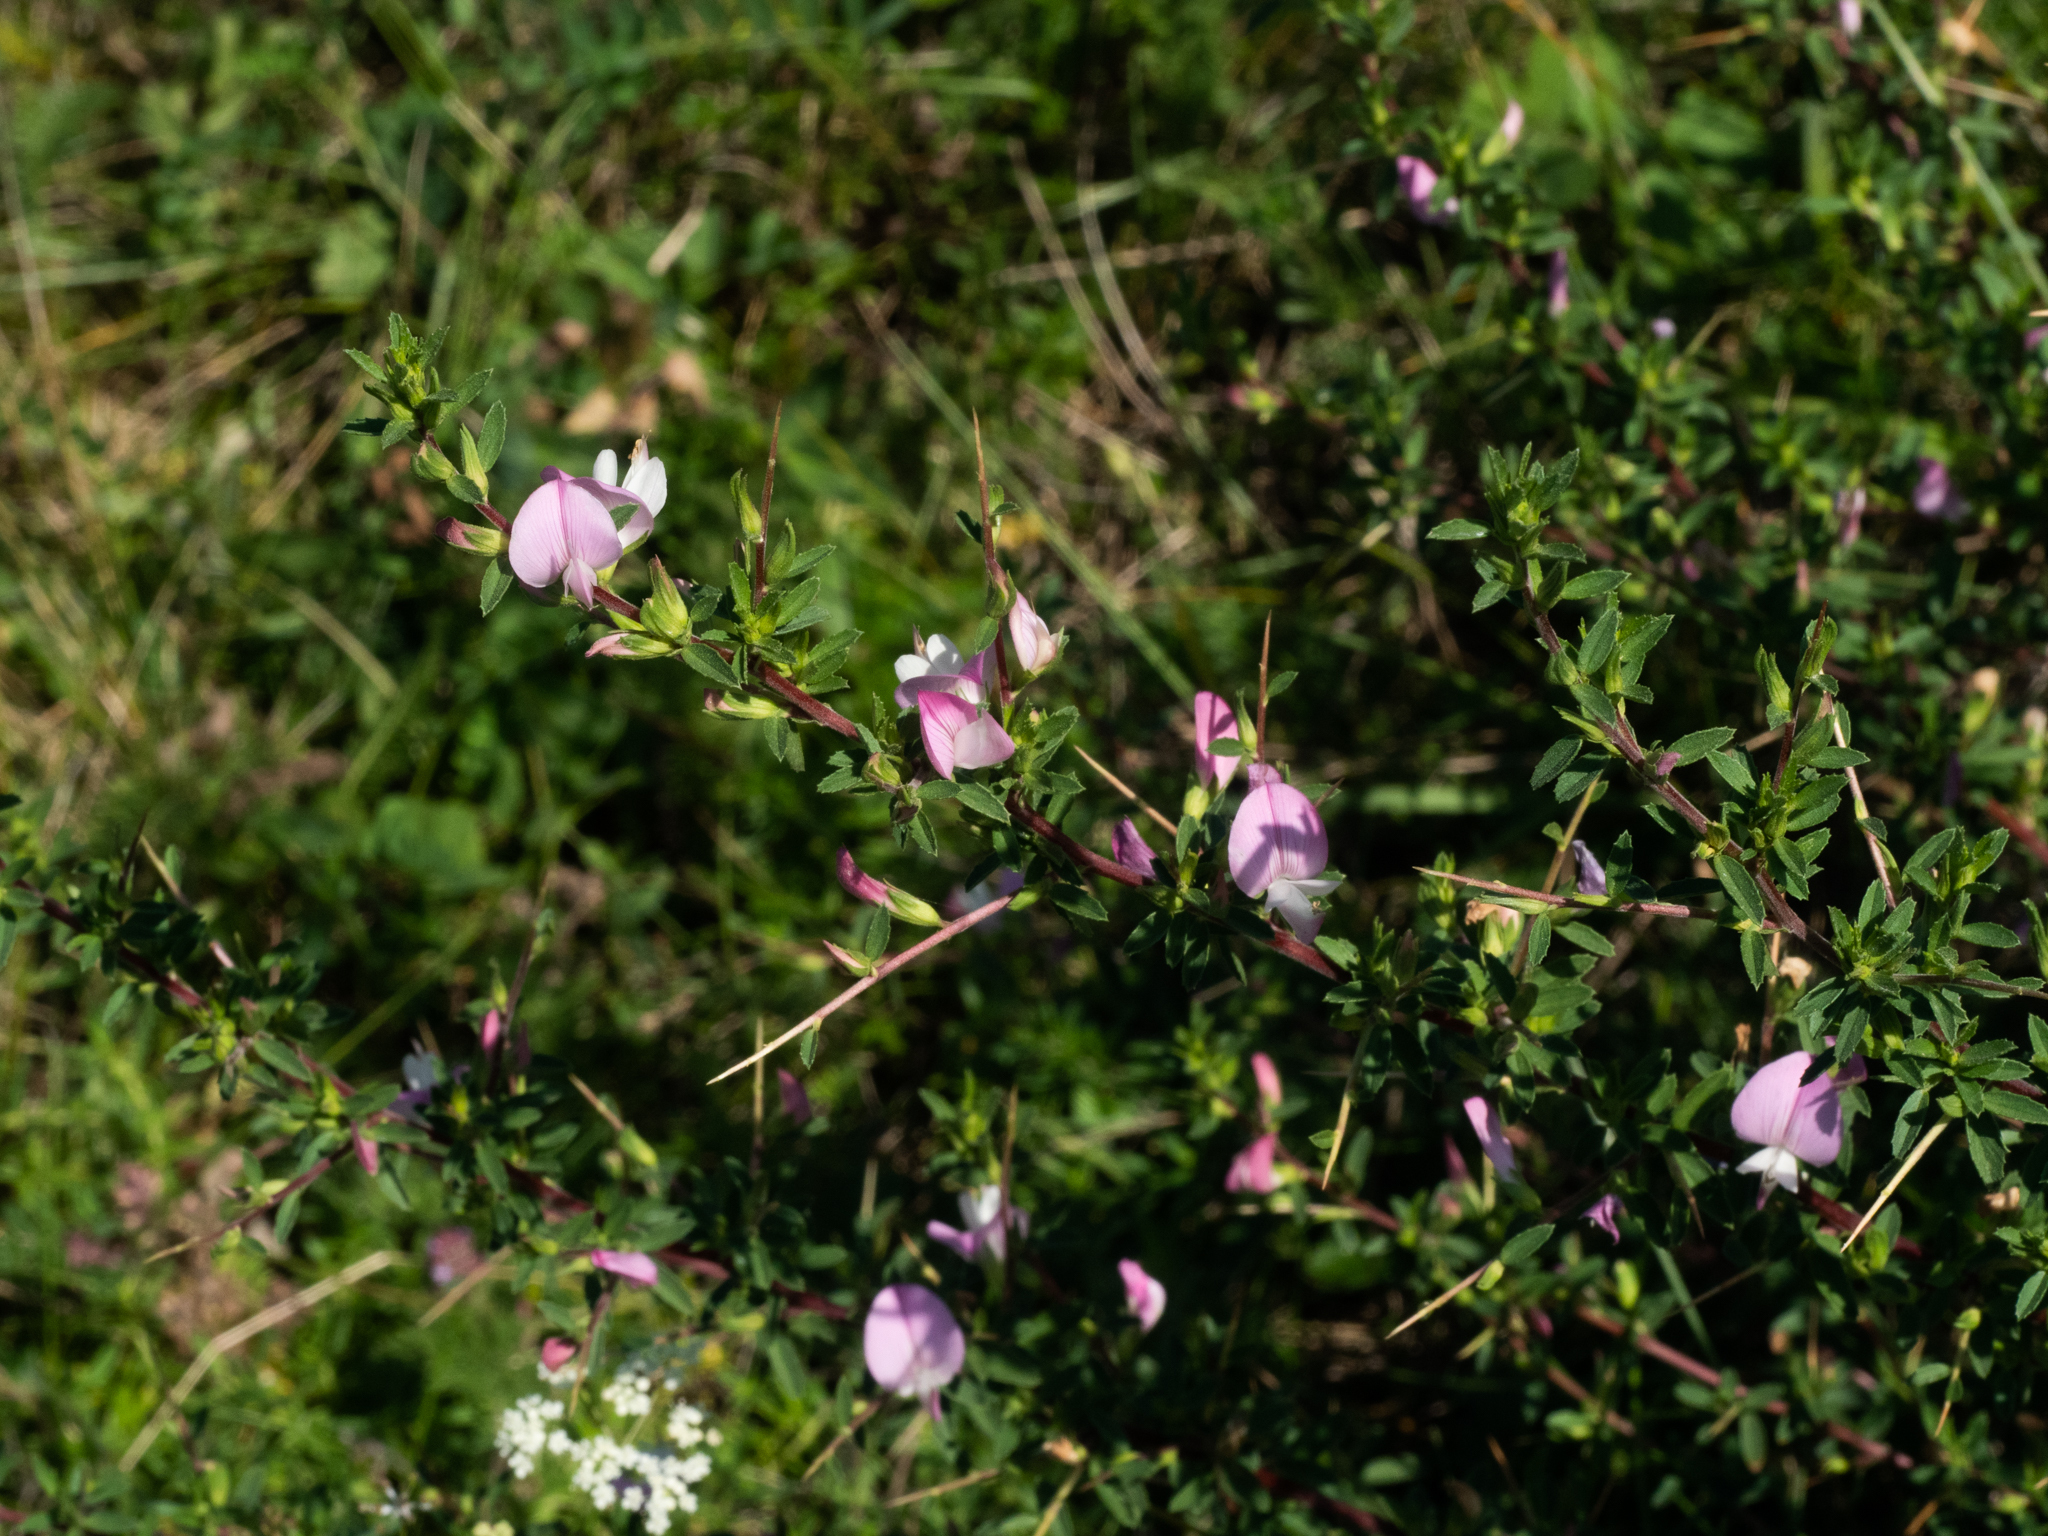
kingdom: Plantae
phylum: Tracheophyta
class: Magnoliopsida
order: Fabales
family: Fabaceae
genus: Ononis
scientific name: Ononis spinosa
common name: Spiny restharrow
